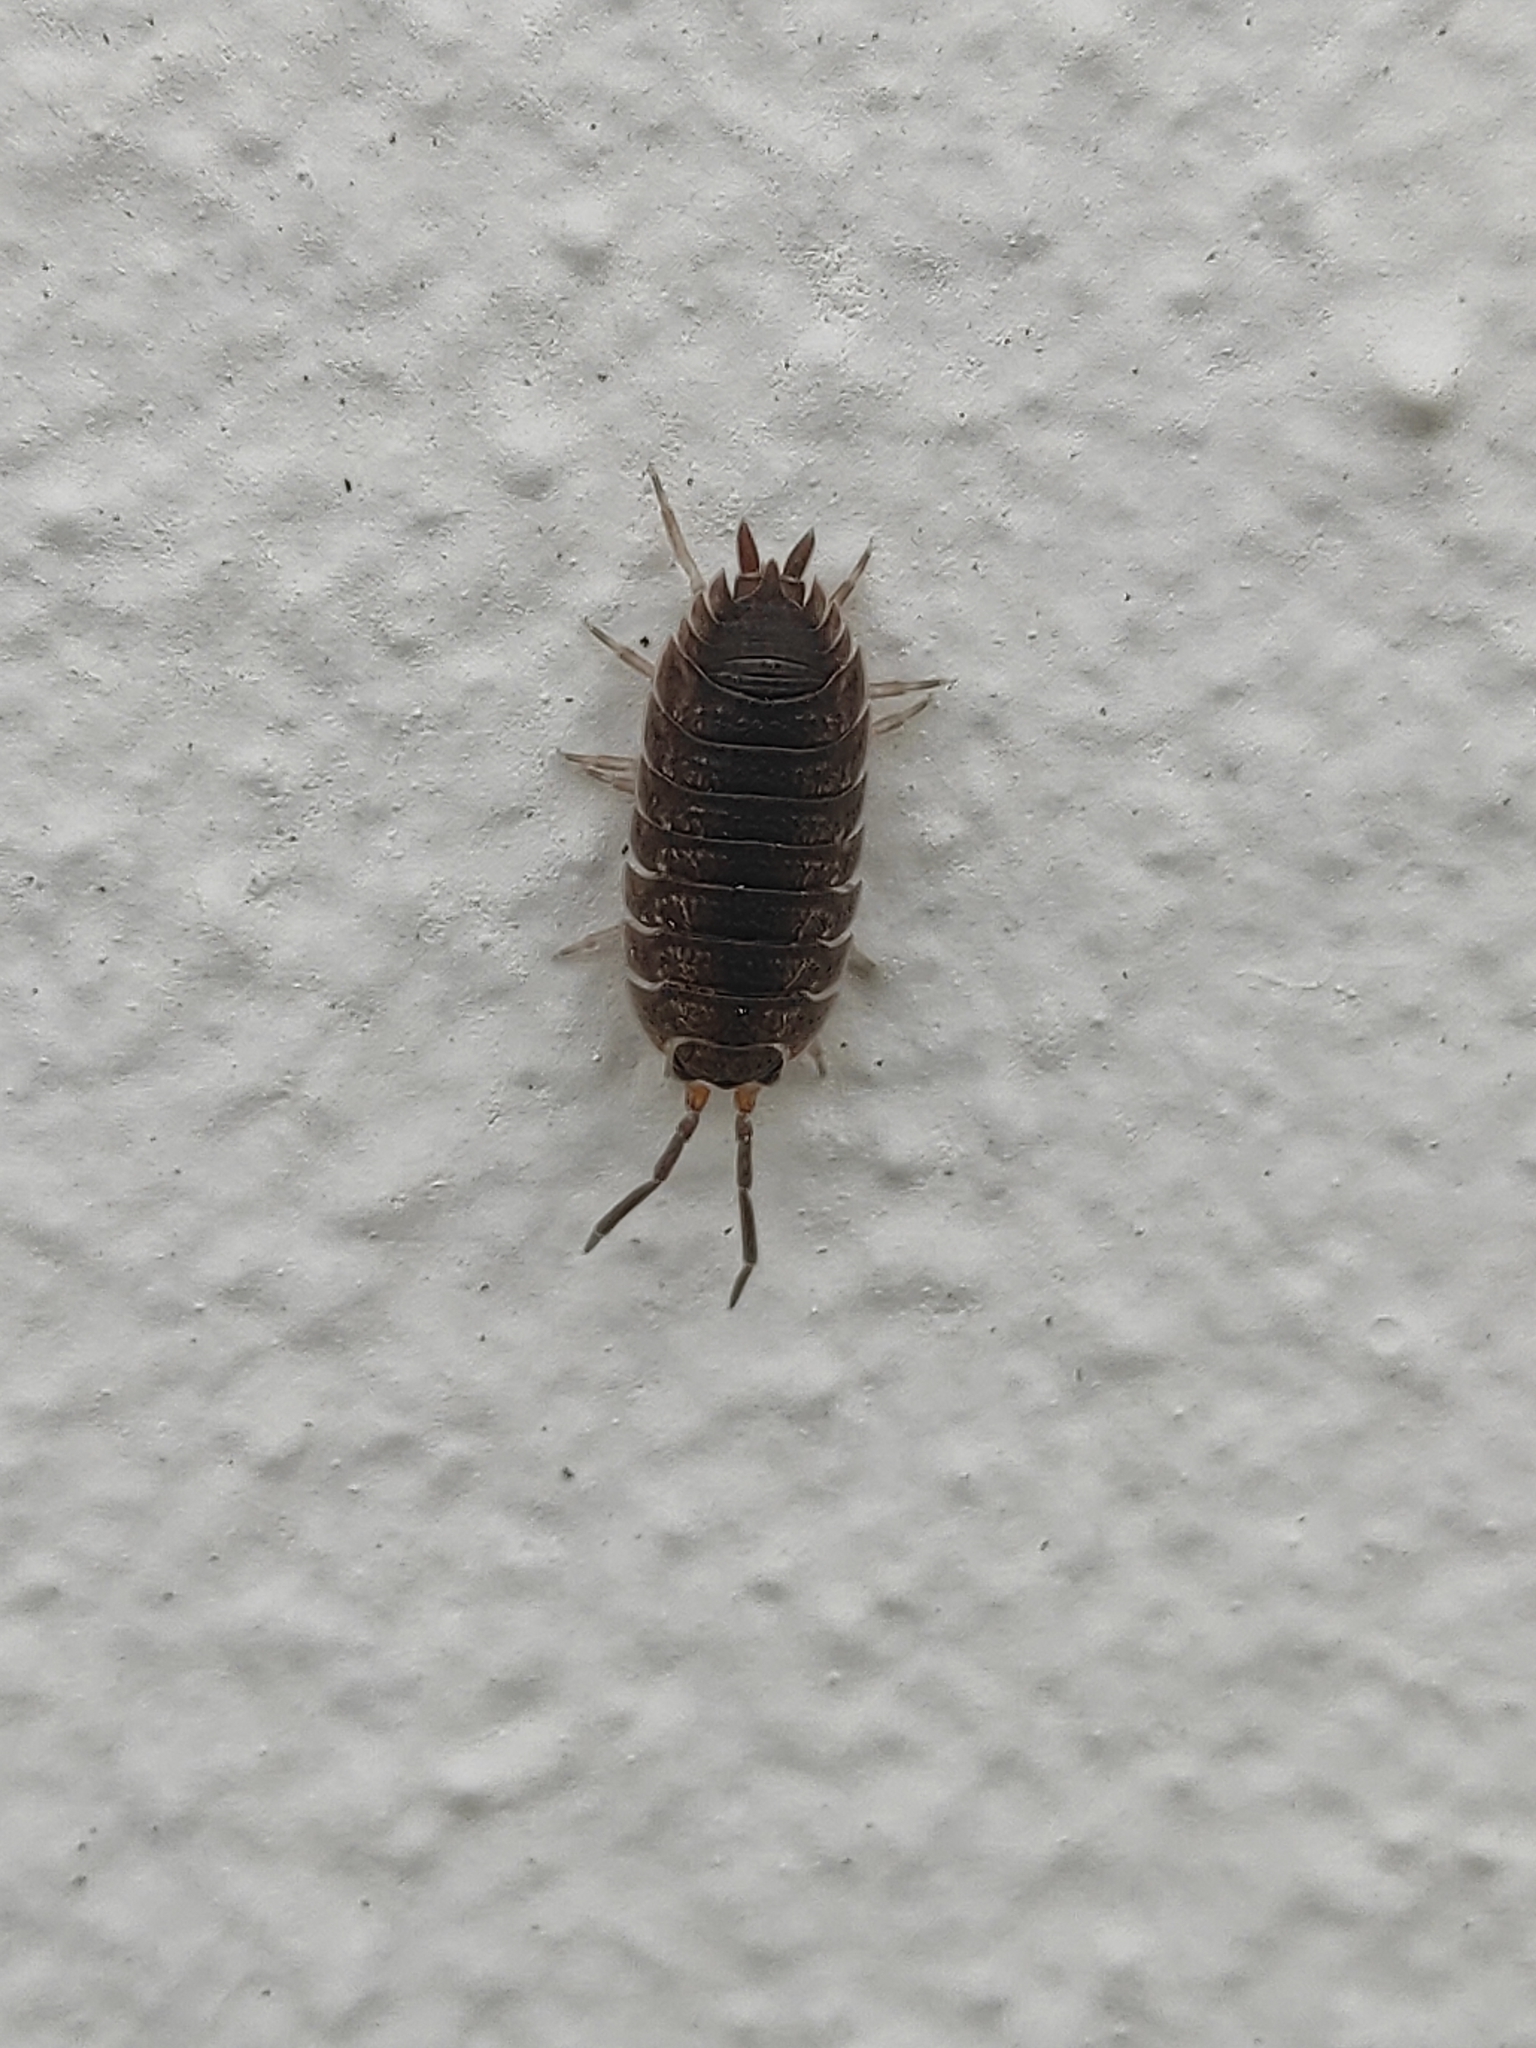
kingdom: Animalia
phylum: Arthropoda
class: Malacostraca
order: Isopoda
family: Porcellionidae
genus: Porcellio
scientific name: Porcellio scaber
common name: Common rough woodlouse
